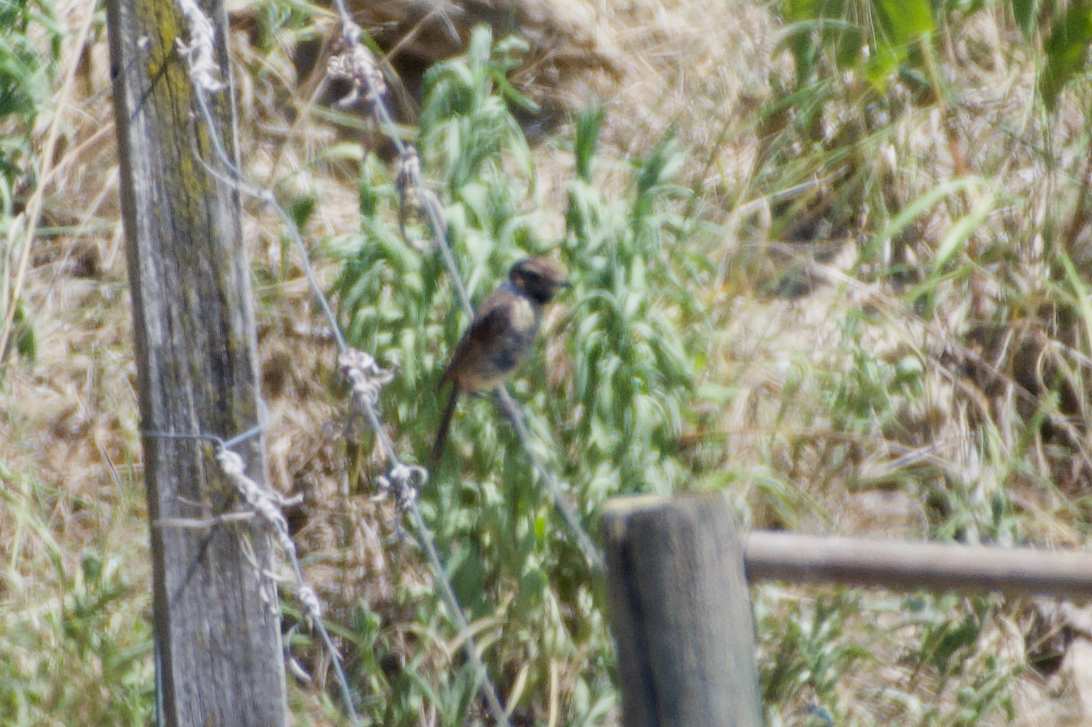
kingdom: Animalia
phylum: Chordata
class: Aves
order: Passeriformes
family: Muscicapidae
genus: Saxicola
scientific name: Saxicola rubicola
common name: European stonechat
